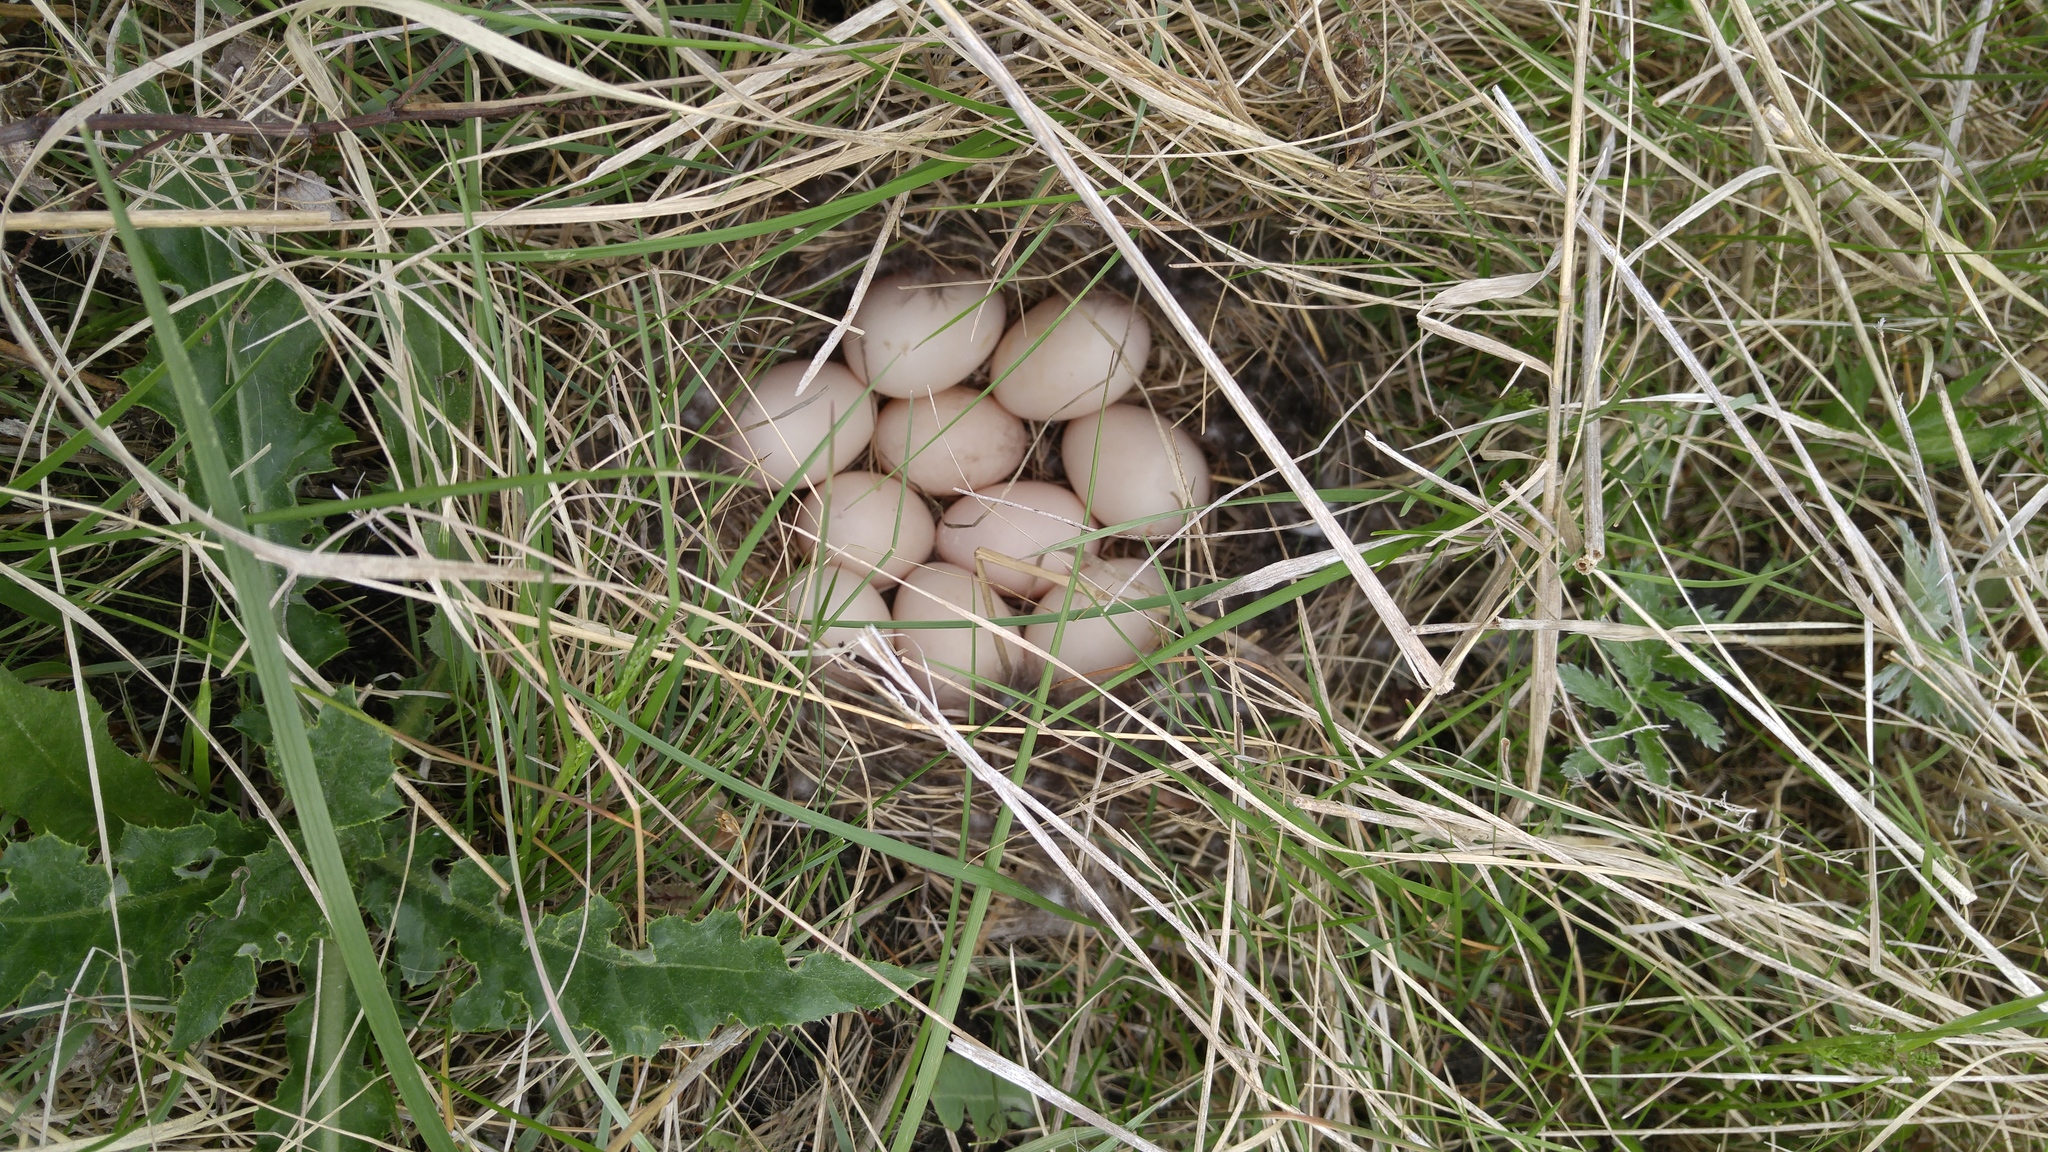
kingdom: Animalia
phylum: Chordata
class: Aves
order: Anseriformes
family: Anatidae
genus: Spatula
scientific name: Spatula discors
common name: Blue-winged teal
